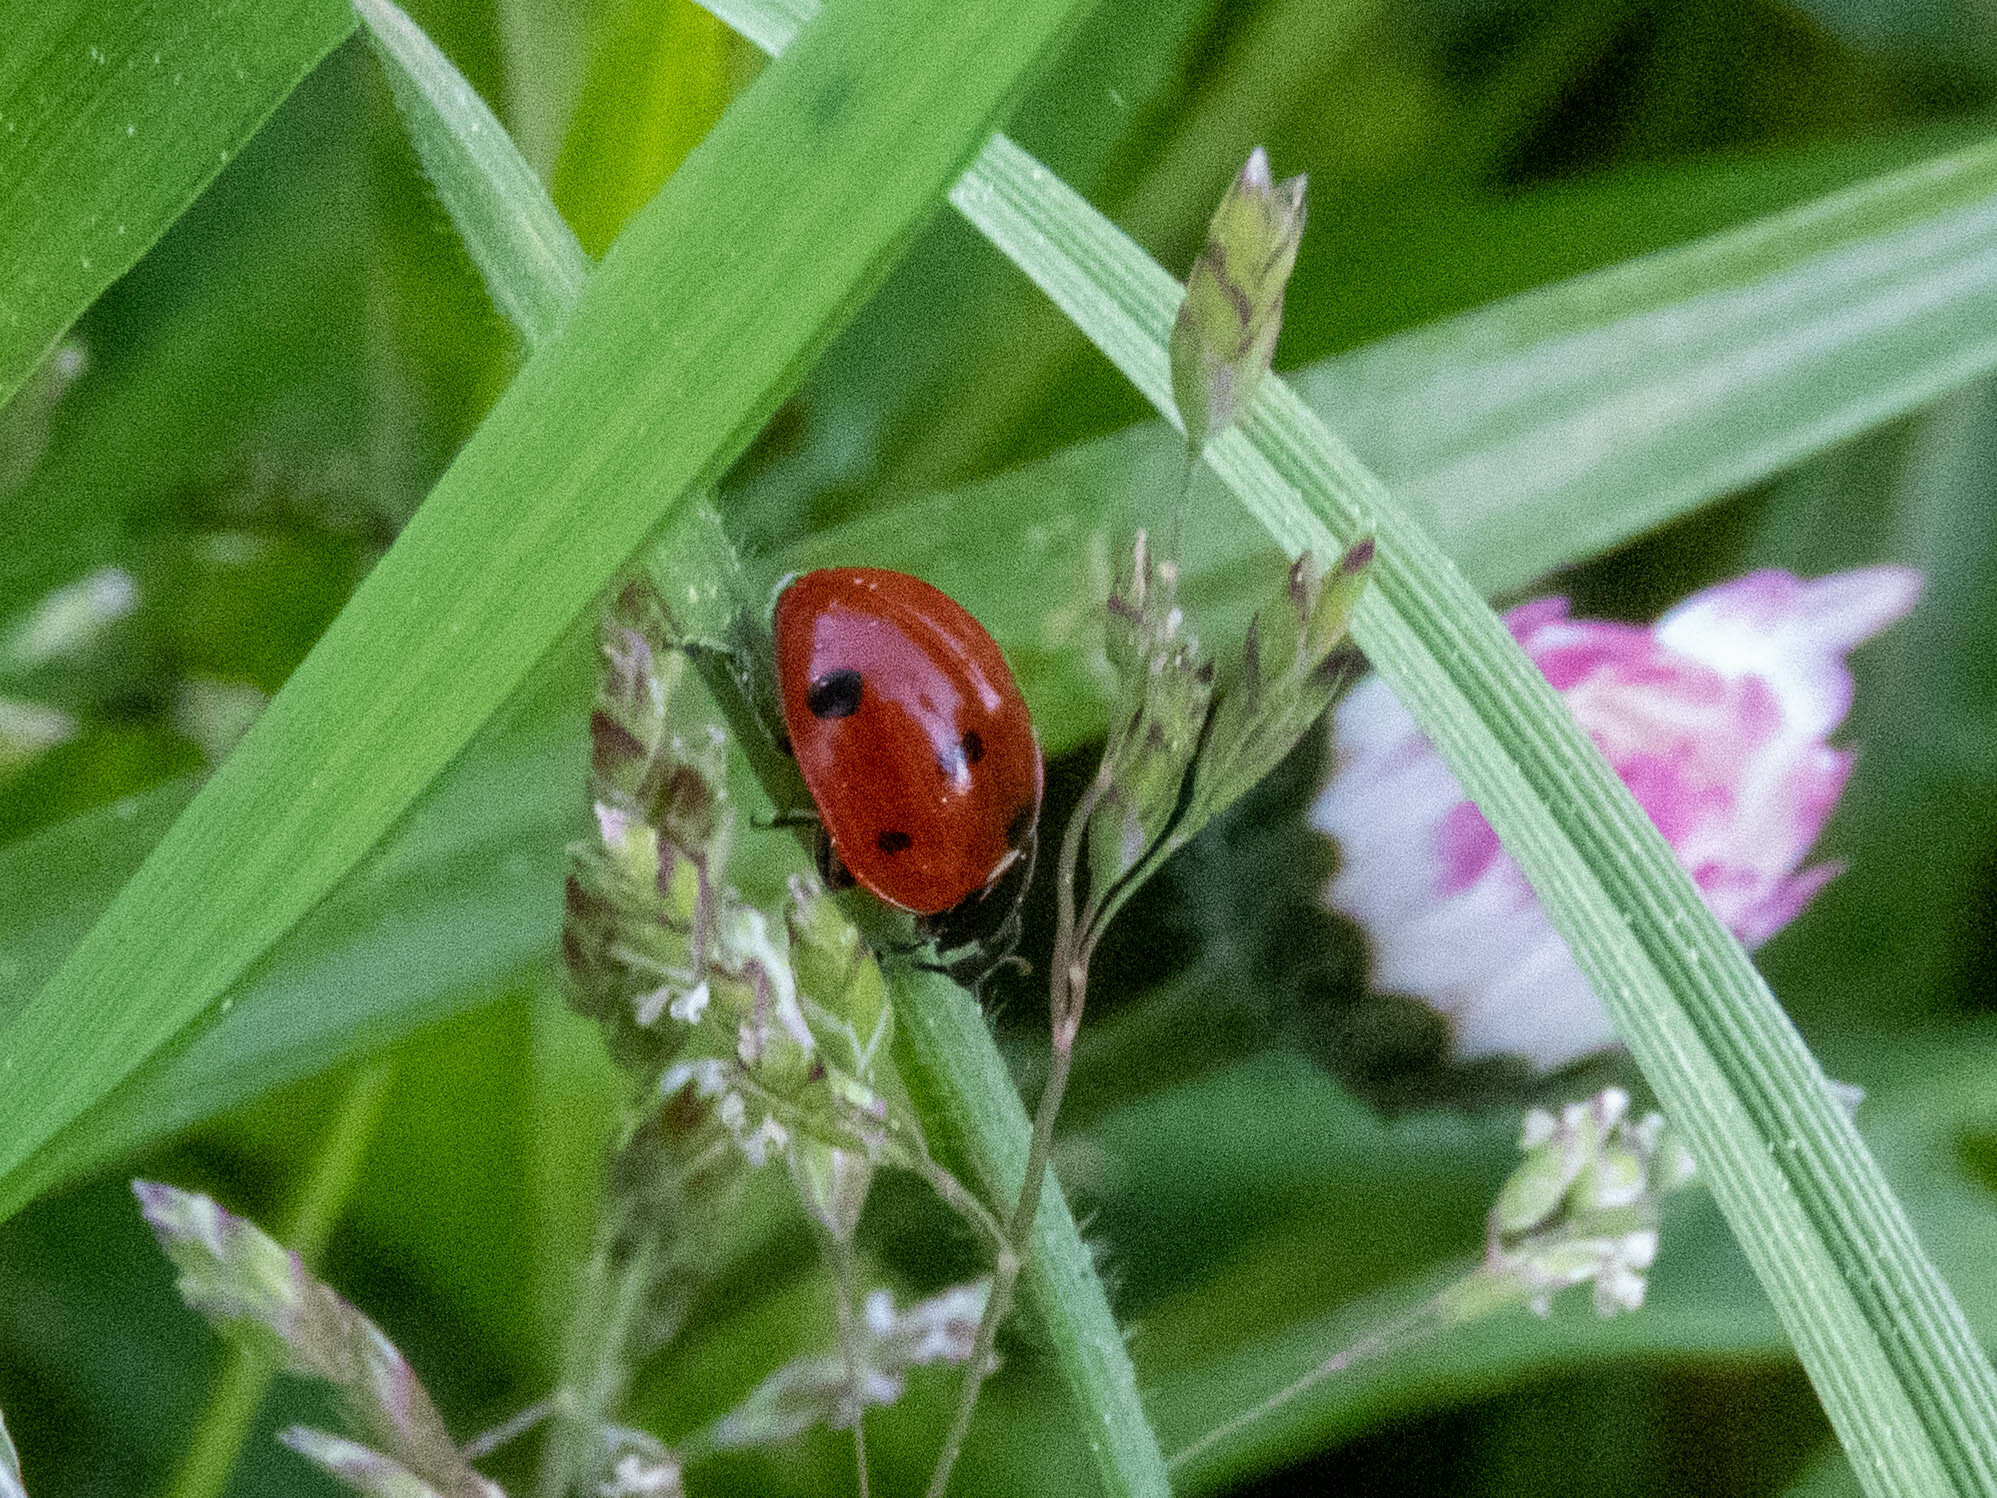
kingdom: Animalia
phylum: Arthropoda
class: Insecta
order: Coleoptera
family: Coccinellidae
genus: Coccinella
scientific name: Coccinella septempunctata
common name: Sevenspotted lady beetle
